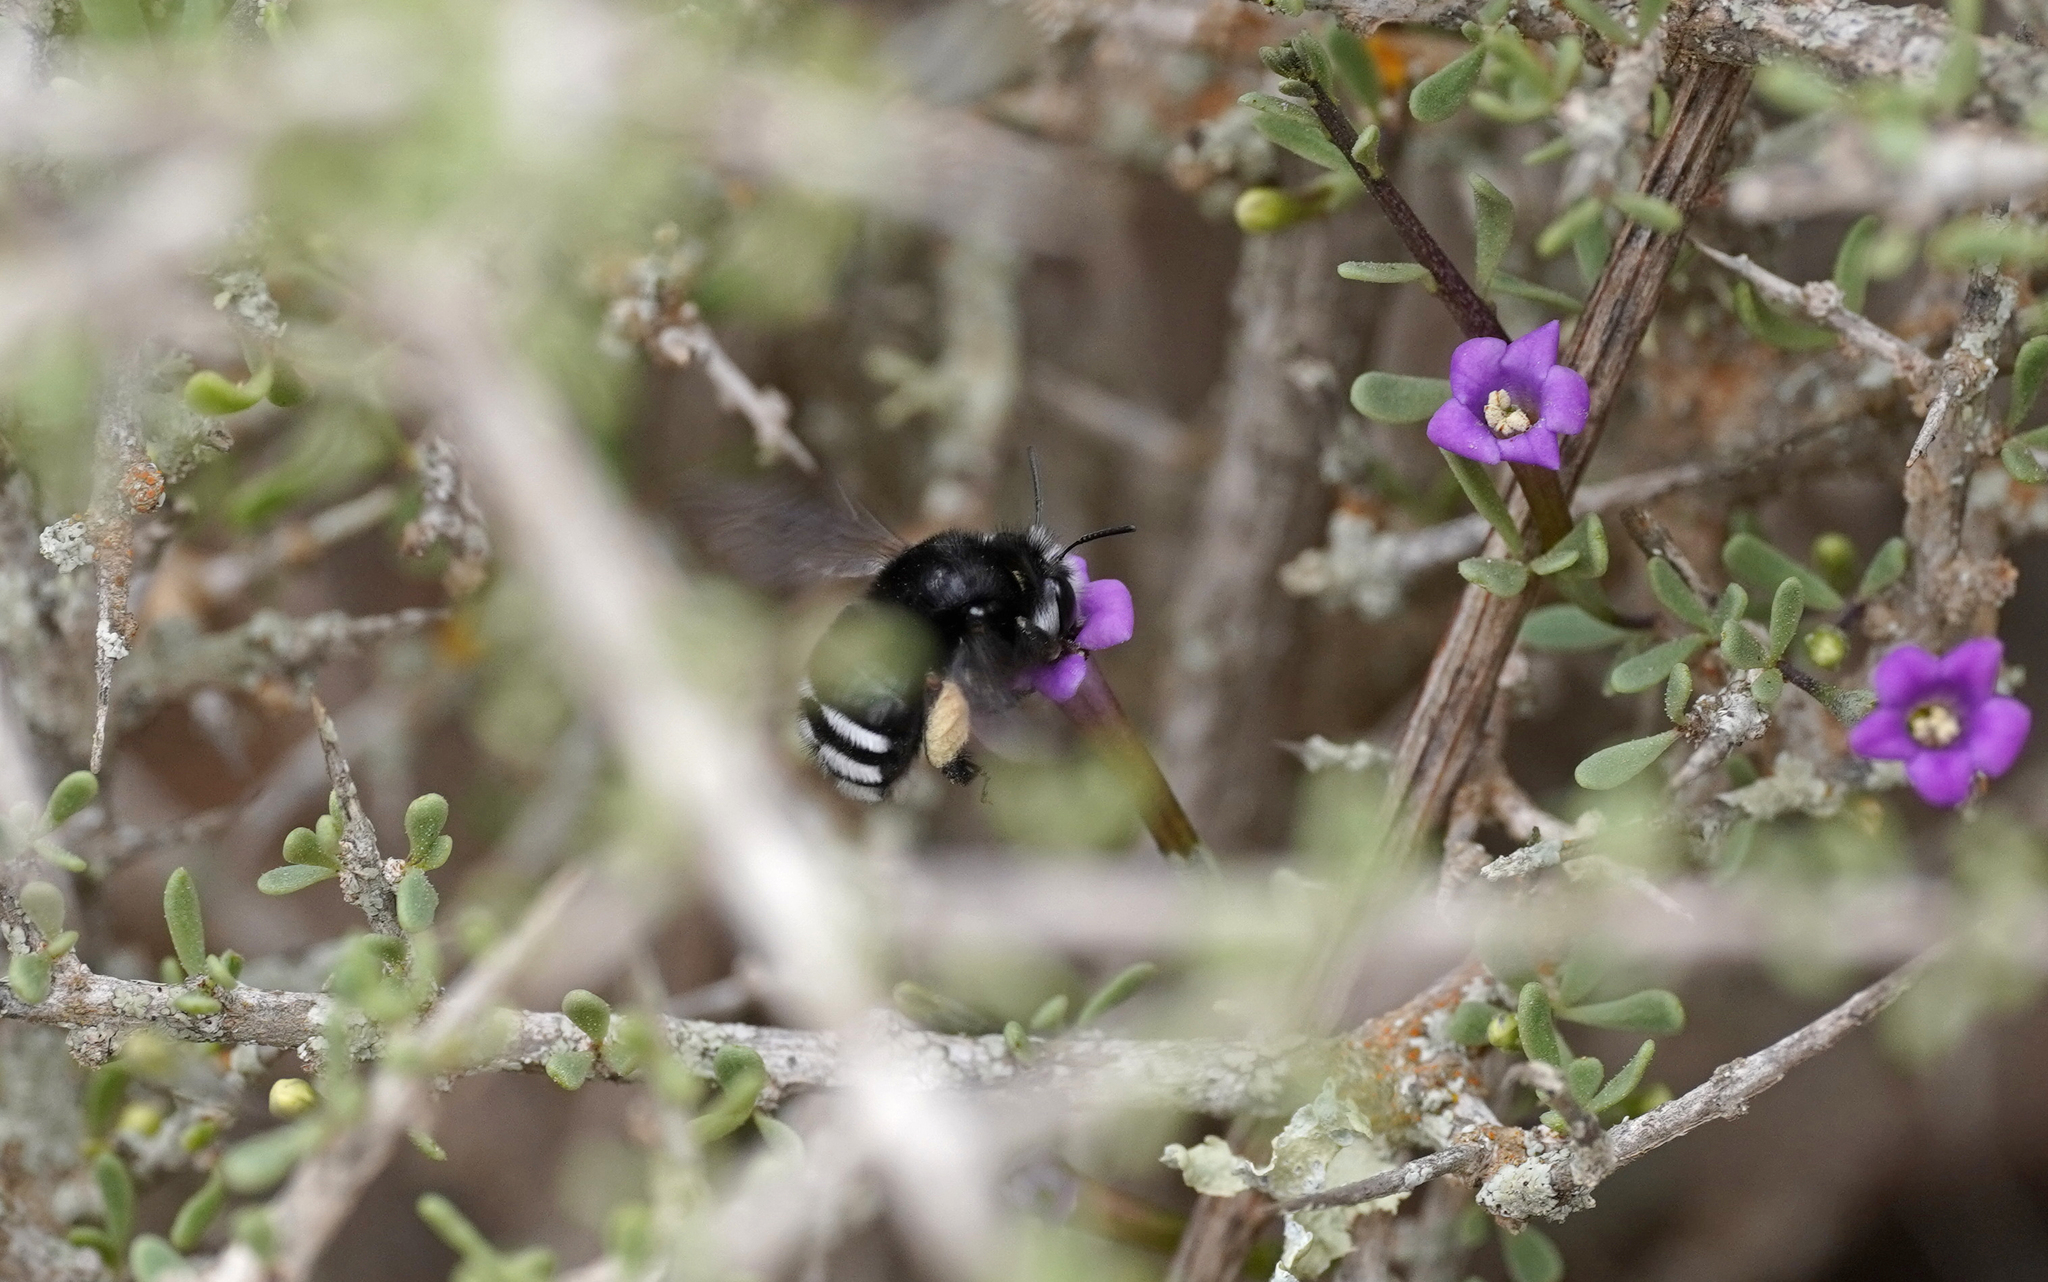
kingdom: Animalia
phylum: Arthropoda
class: Insecta
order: Hymenoptera
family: Apidae
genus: Anthophora
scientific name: Anthophora alluaudi
